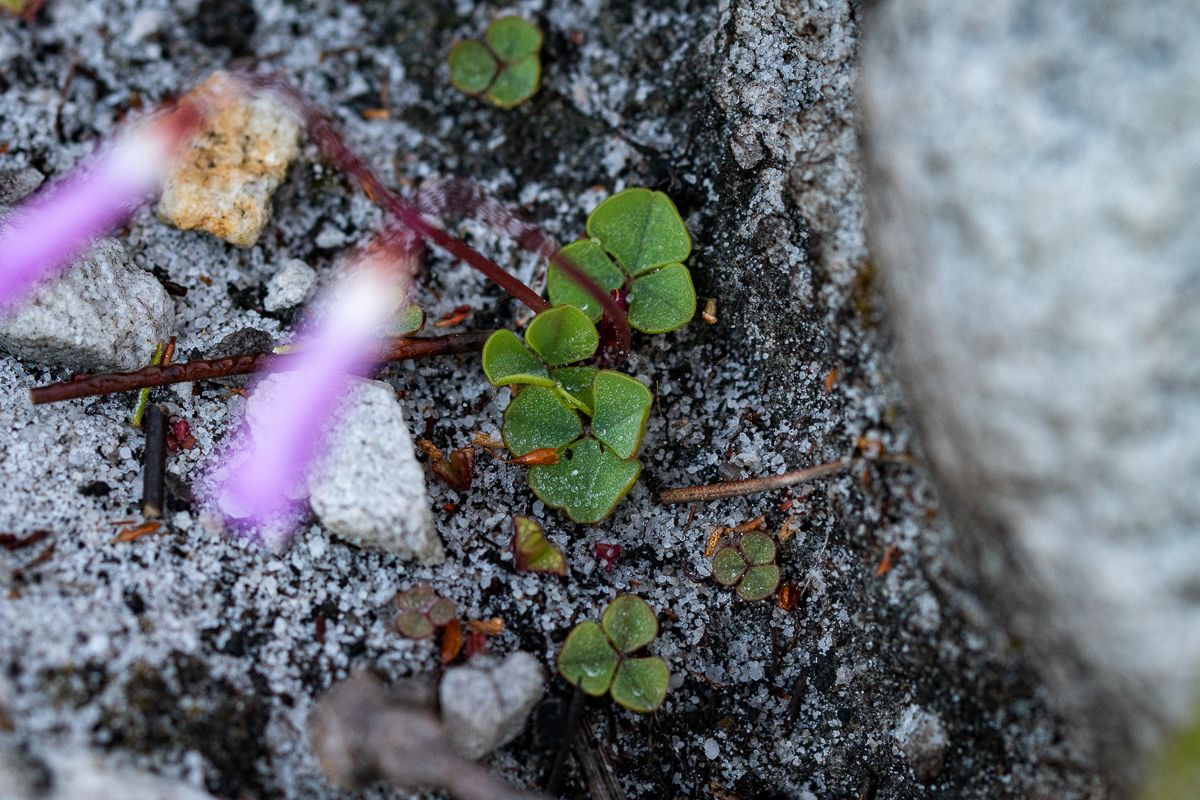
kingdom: Plantae
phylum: Tracheophyta
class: Magnoliopsida
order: Oxalidales
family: Oxalidaceae
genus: Oxalis
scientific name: Oxalis commutata
